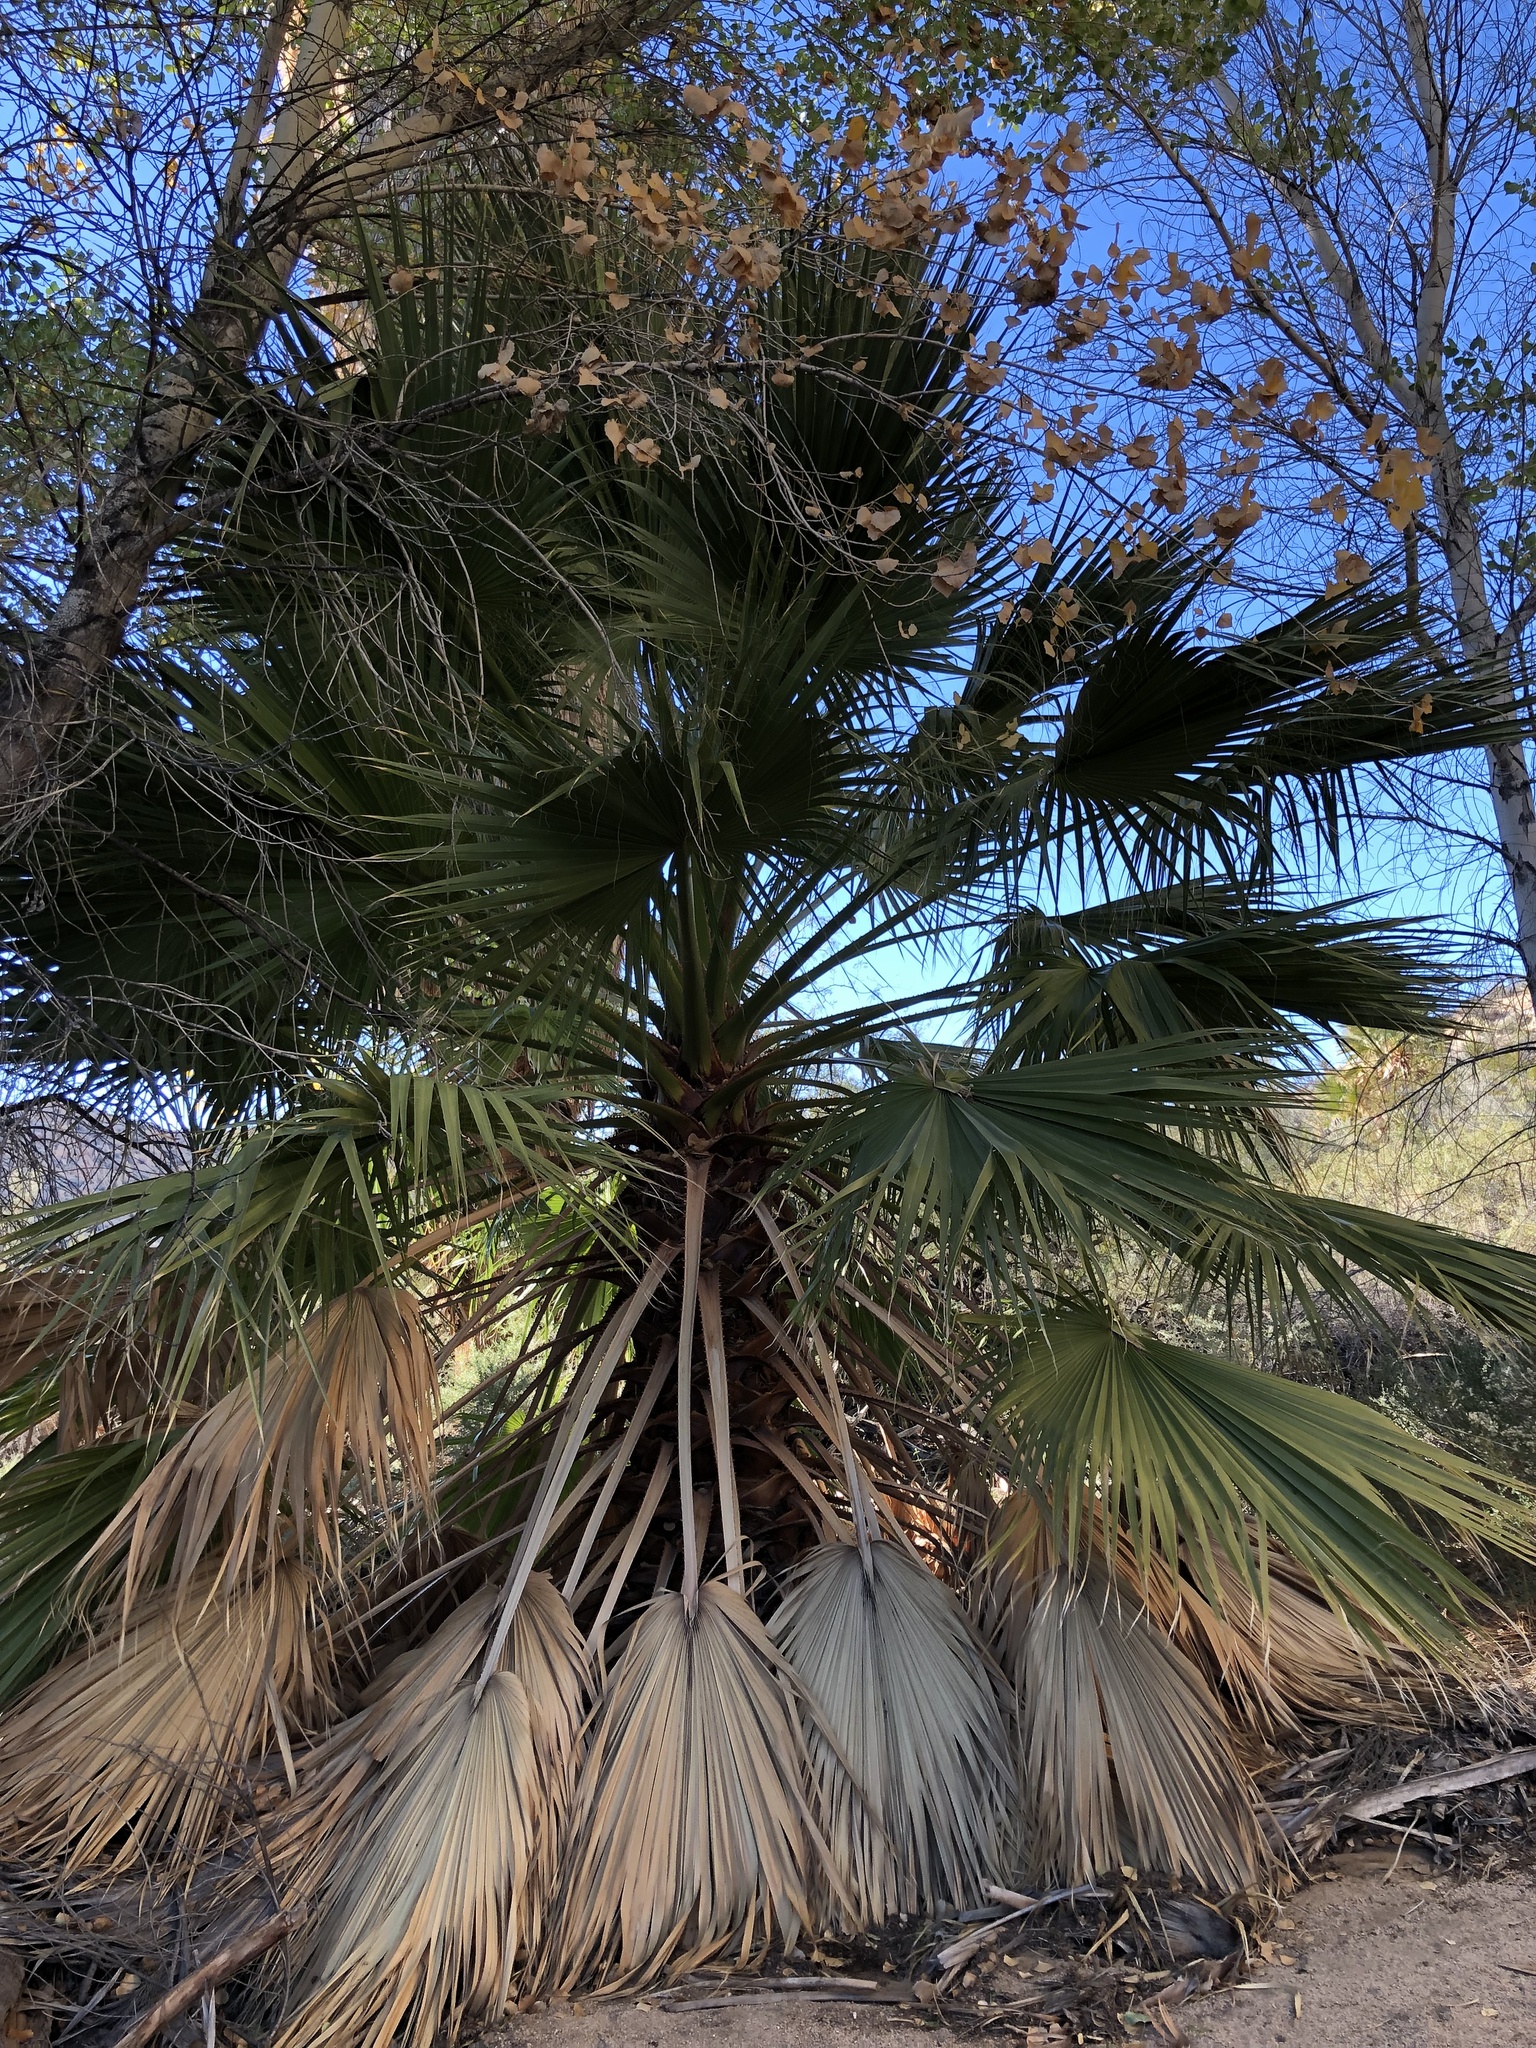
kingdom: Plantae
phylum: Tracheophyta
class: Liliopsida
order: Arecales
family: Arecaceae
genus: Washingtonia
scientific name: Washingtonia filifera
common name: California fan palm
